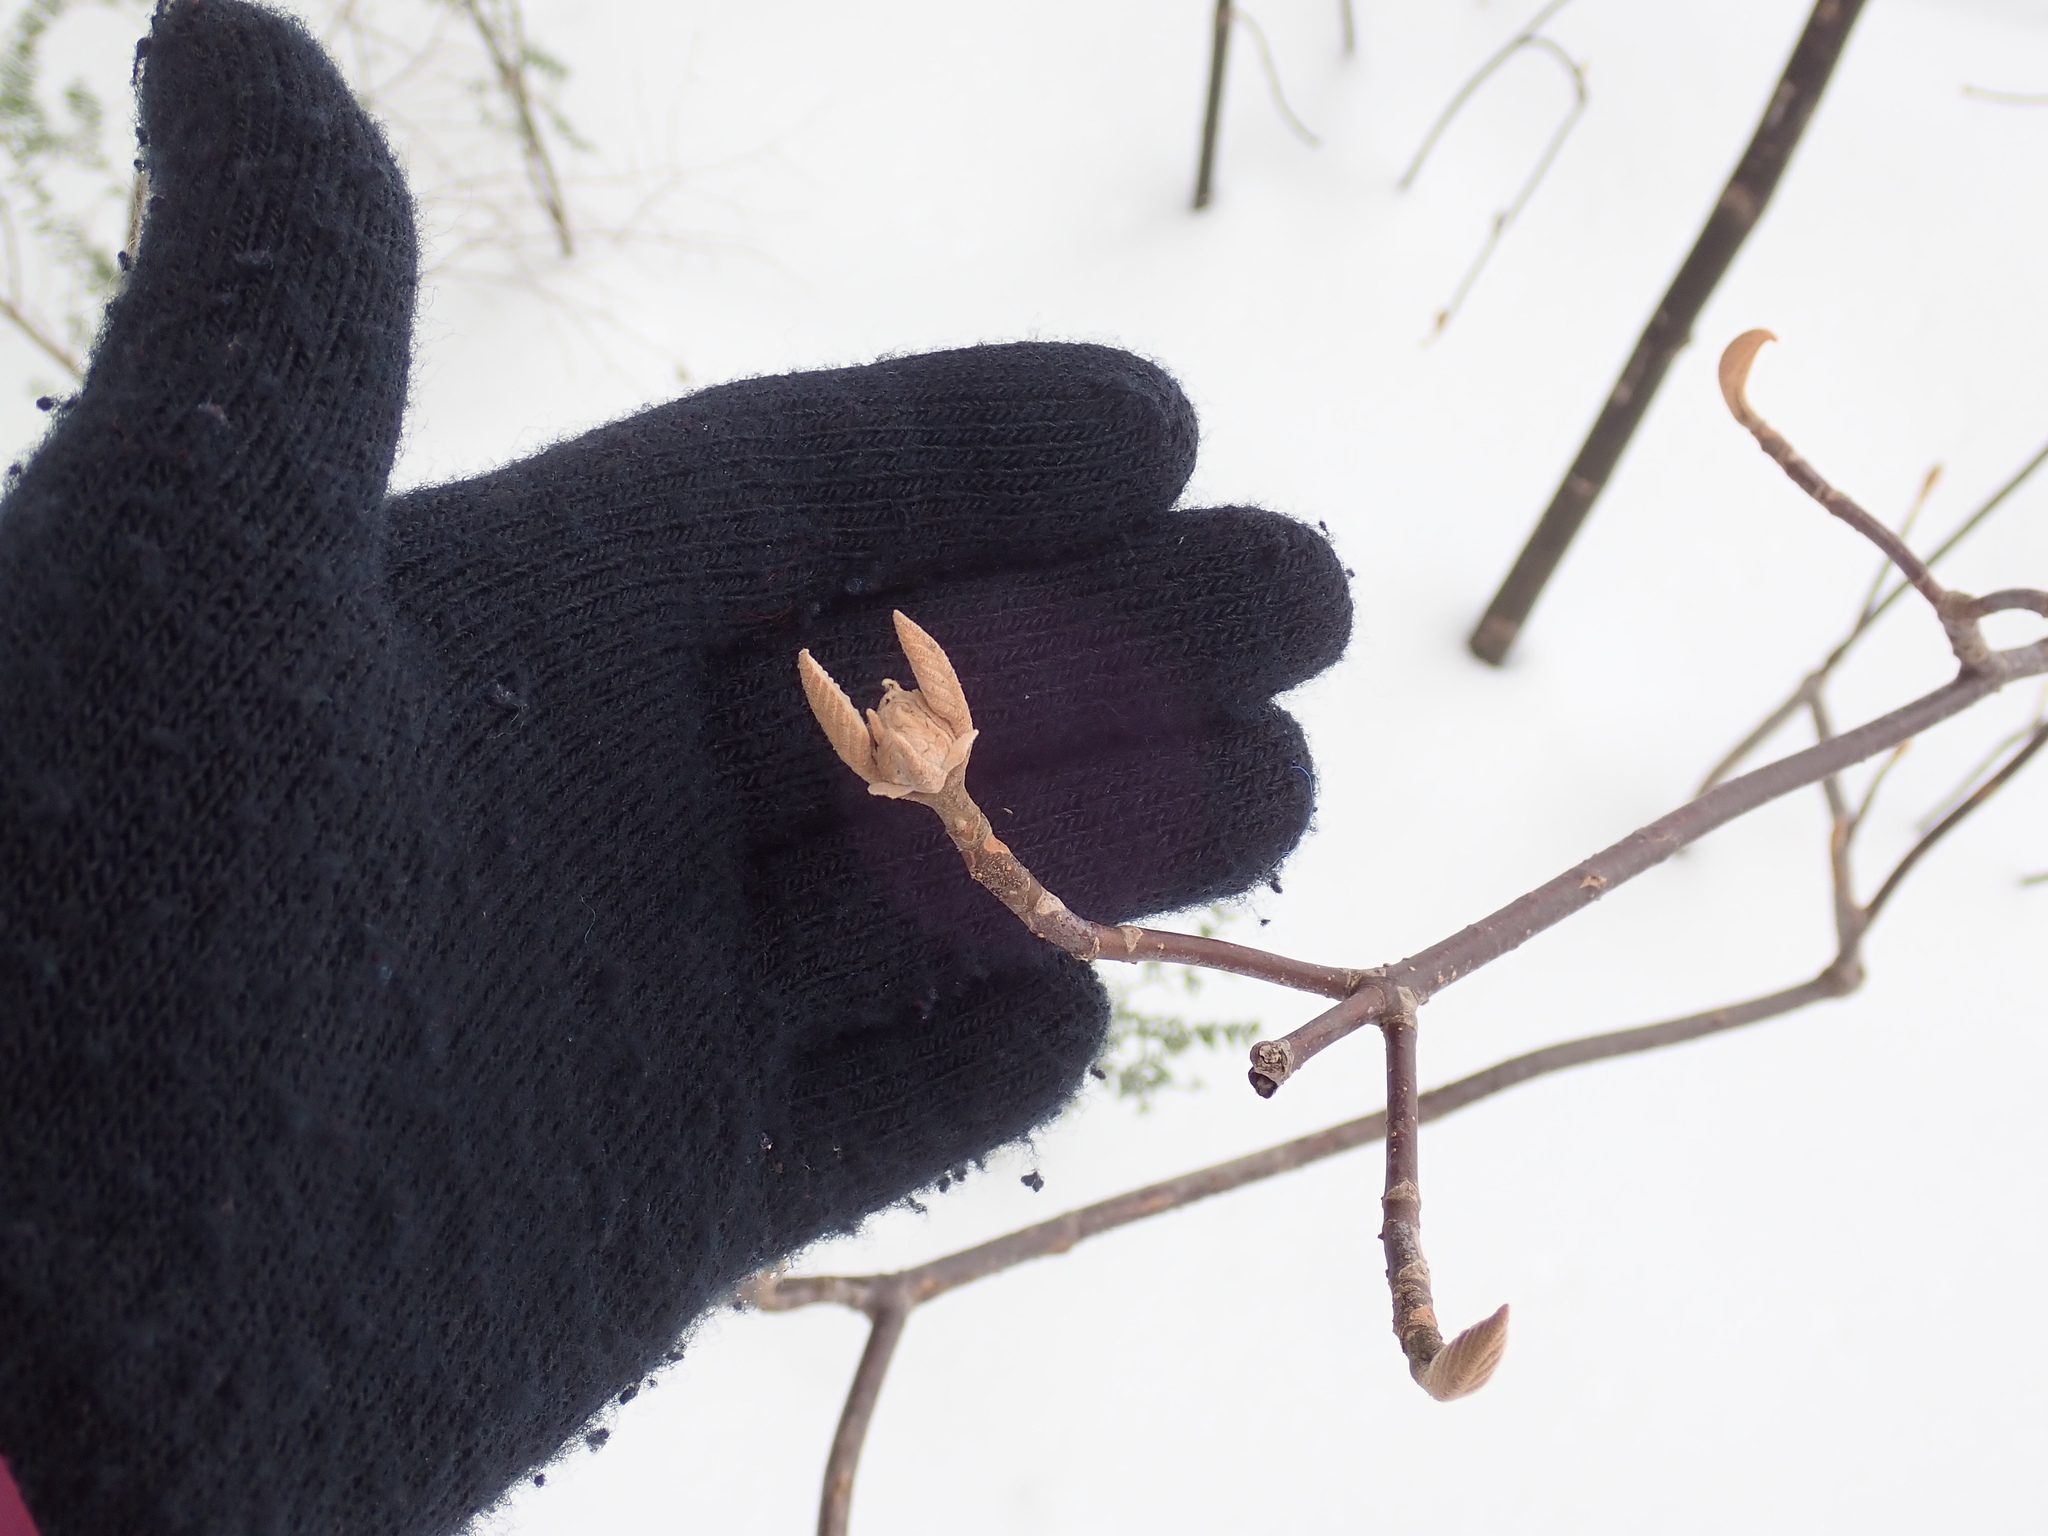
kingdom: Plantae
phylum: Tracheophyta
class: Magnoliopsida
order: Dipsacales
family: Viburnaceae
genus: Viburnum
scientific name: Viburnum lantanoides
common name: Hobblebush
